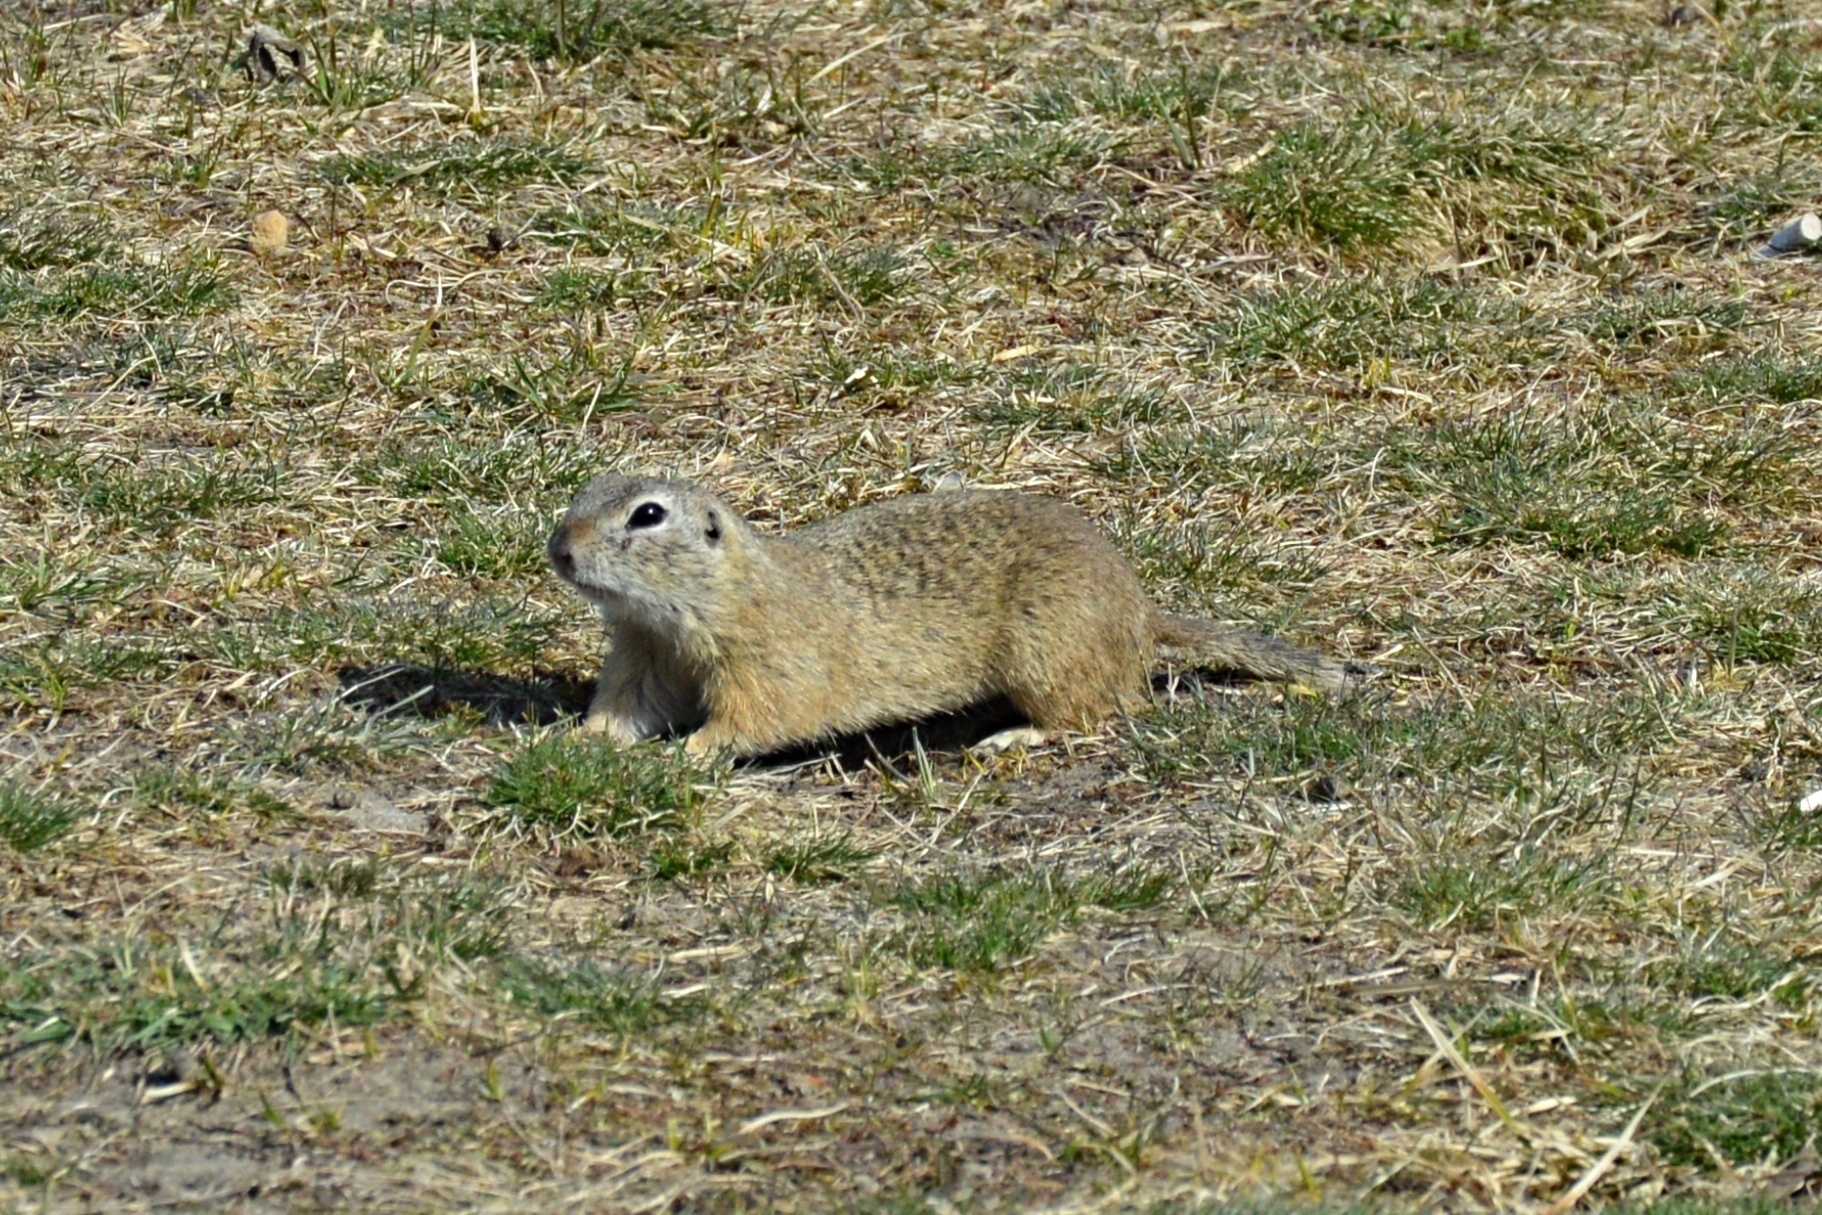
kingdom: Animalia
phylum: Chordata
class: Mammalia
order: Rodentia
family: Sciuridae
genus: Spermophilus
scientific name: Spermophilus citellus
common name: European ground squirrel
